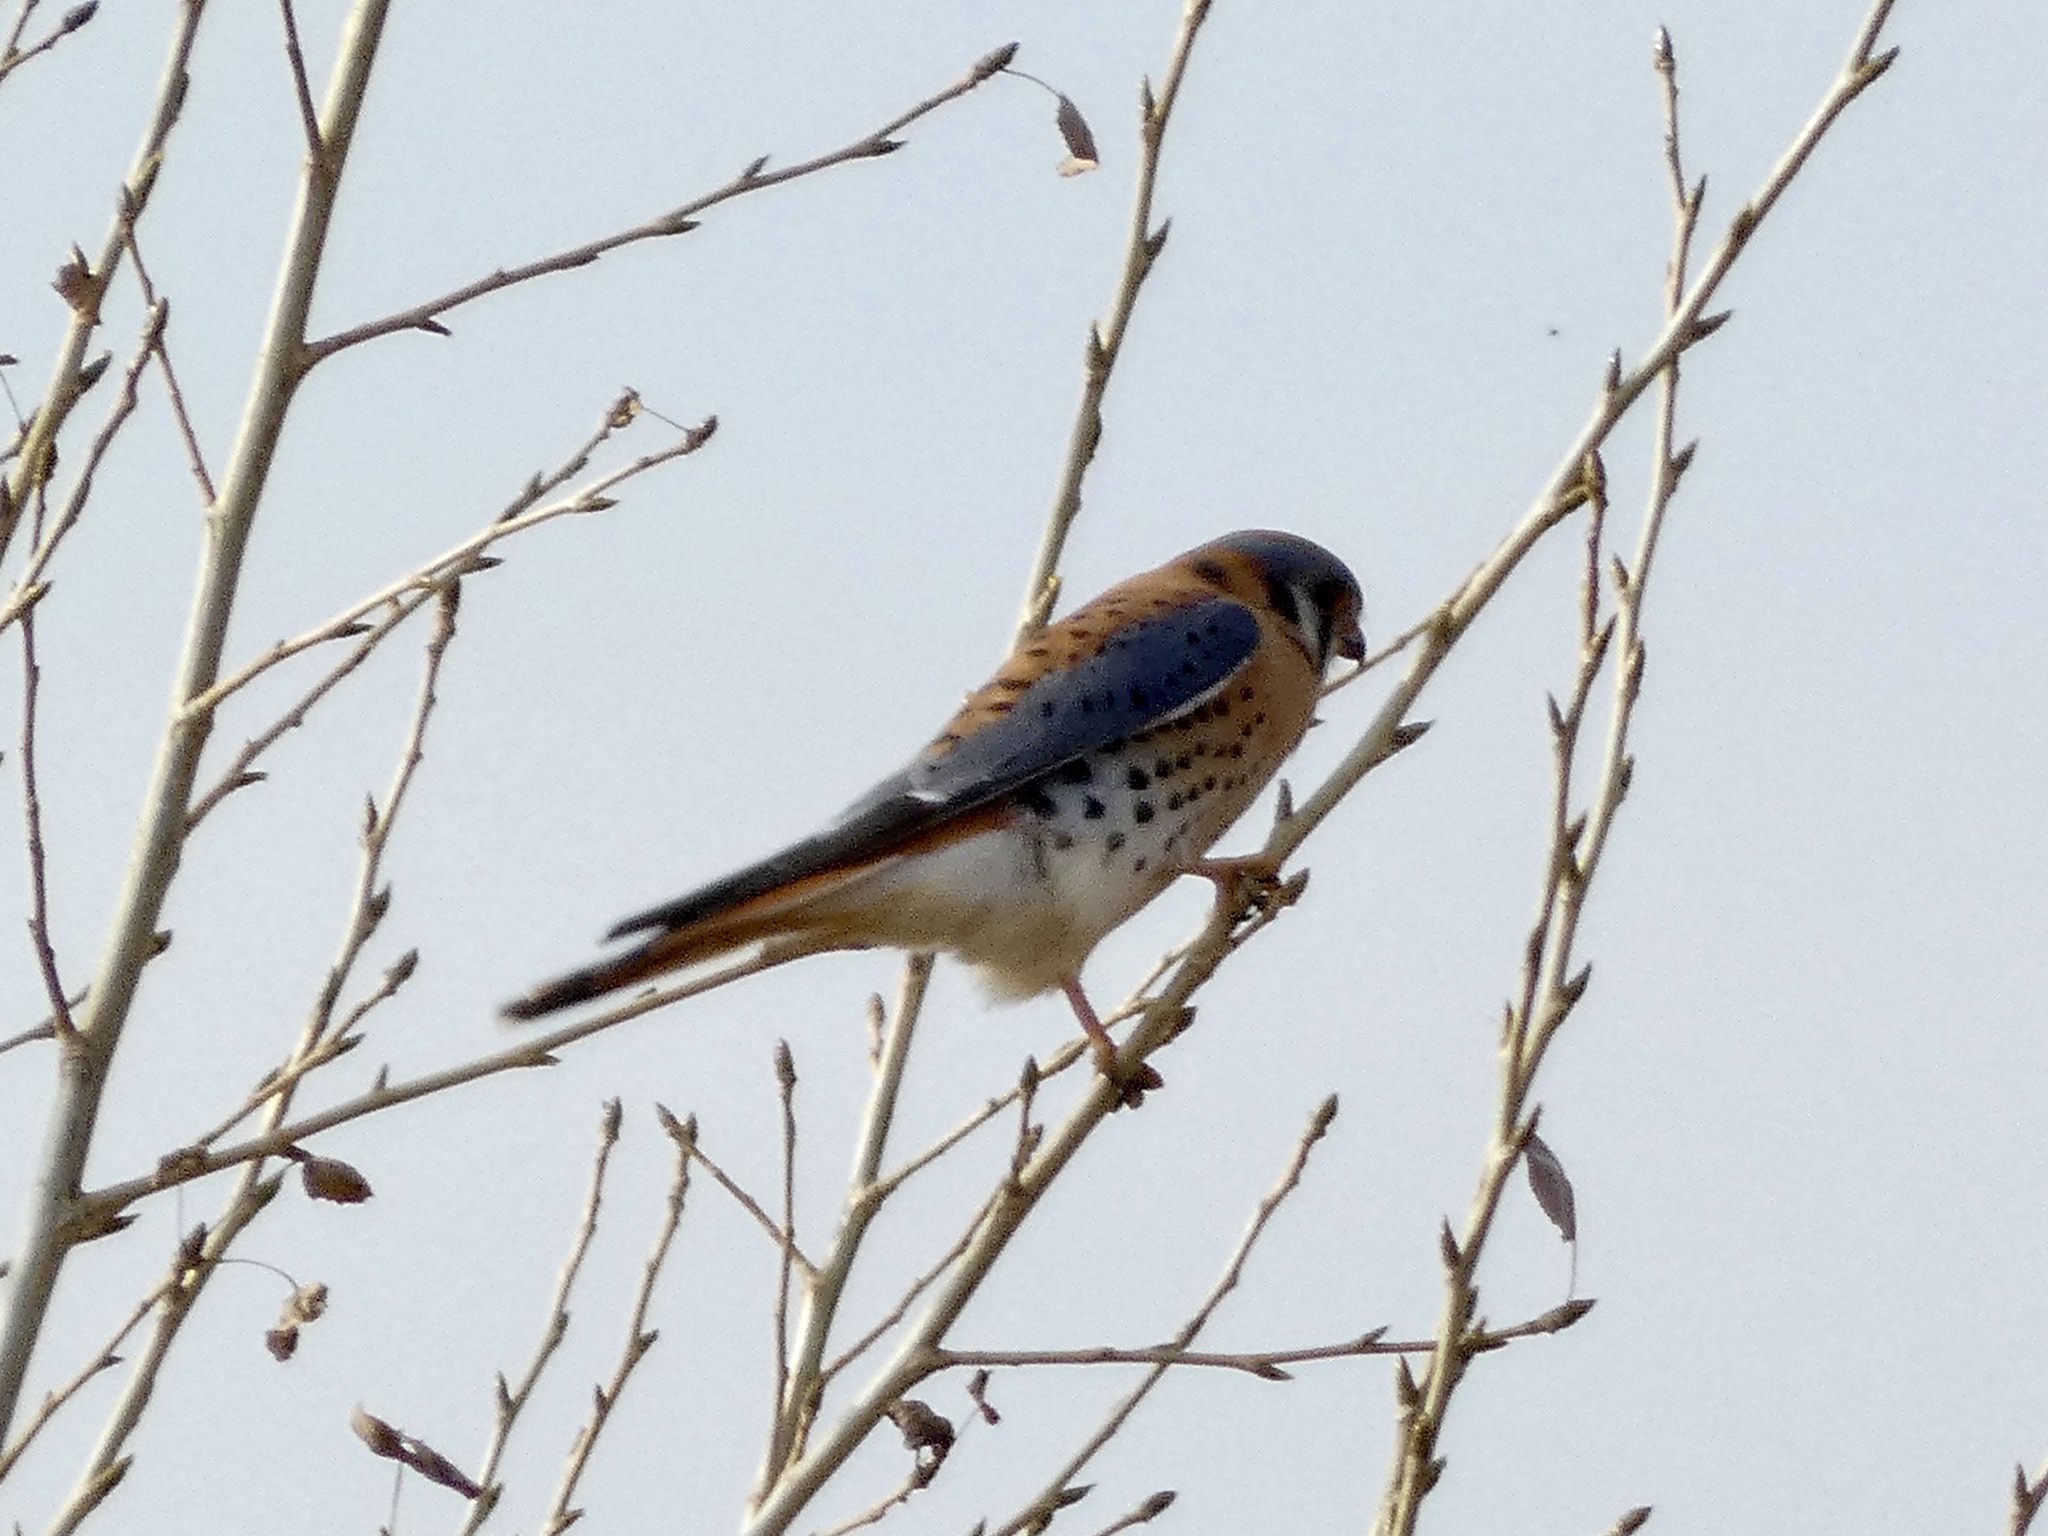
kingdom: Animalia
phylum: Chordata
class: Aves
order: Falconiformes
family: Falconidae
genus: Falco
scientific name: Falco sparverius
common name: American kestrel
